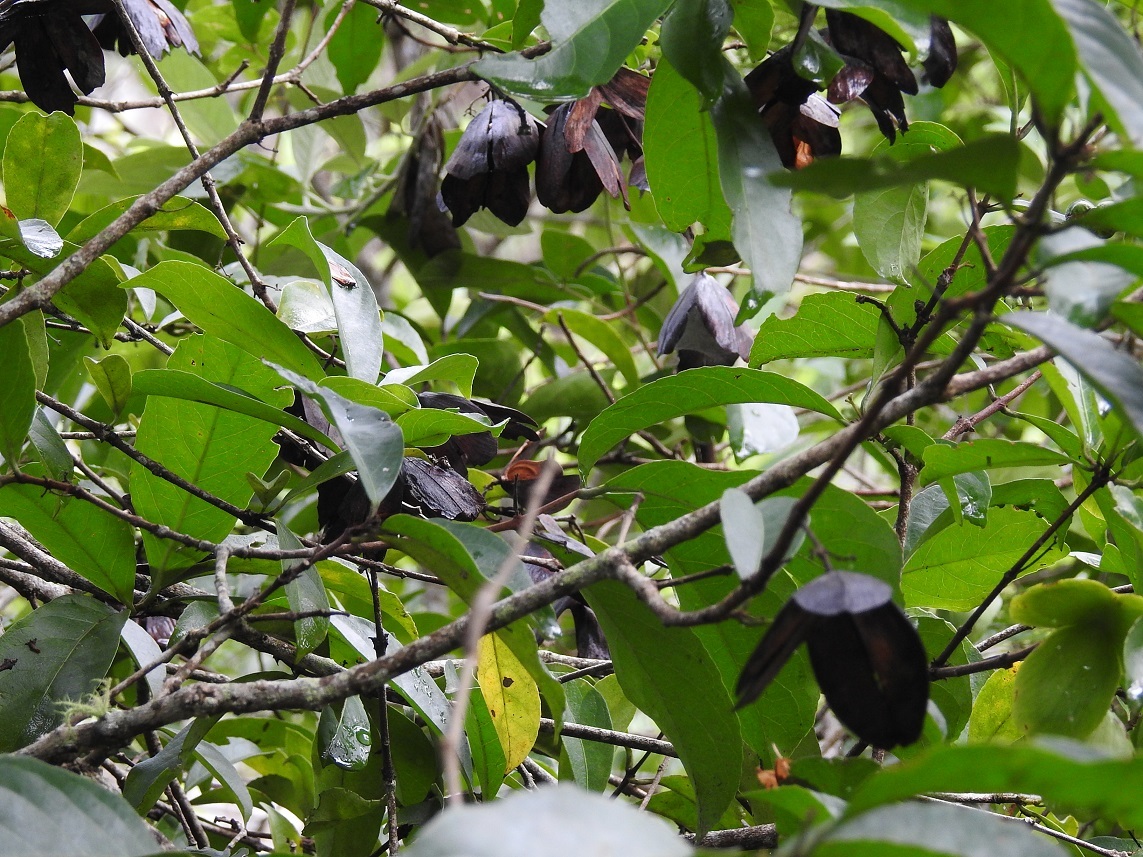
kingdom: Plantae
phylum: Tracheophyta
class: Magnoliopsida
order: Celastrales
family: Celastraceae
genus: Semialarium
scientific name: Semialarium mexicanum
